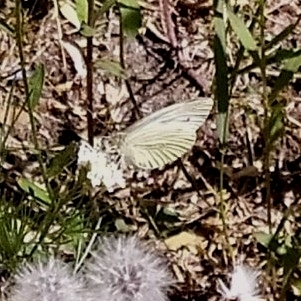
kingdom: Animalia
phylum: Arthropoda
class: Insecta
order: Lepidoptera
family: Pieridae
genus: Pieris
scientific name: Pieris napi
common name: Green-veined white
